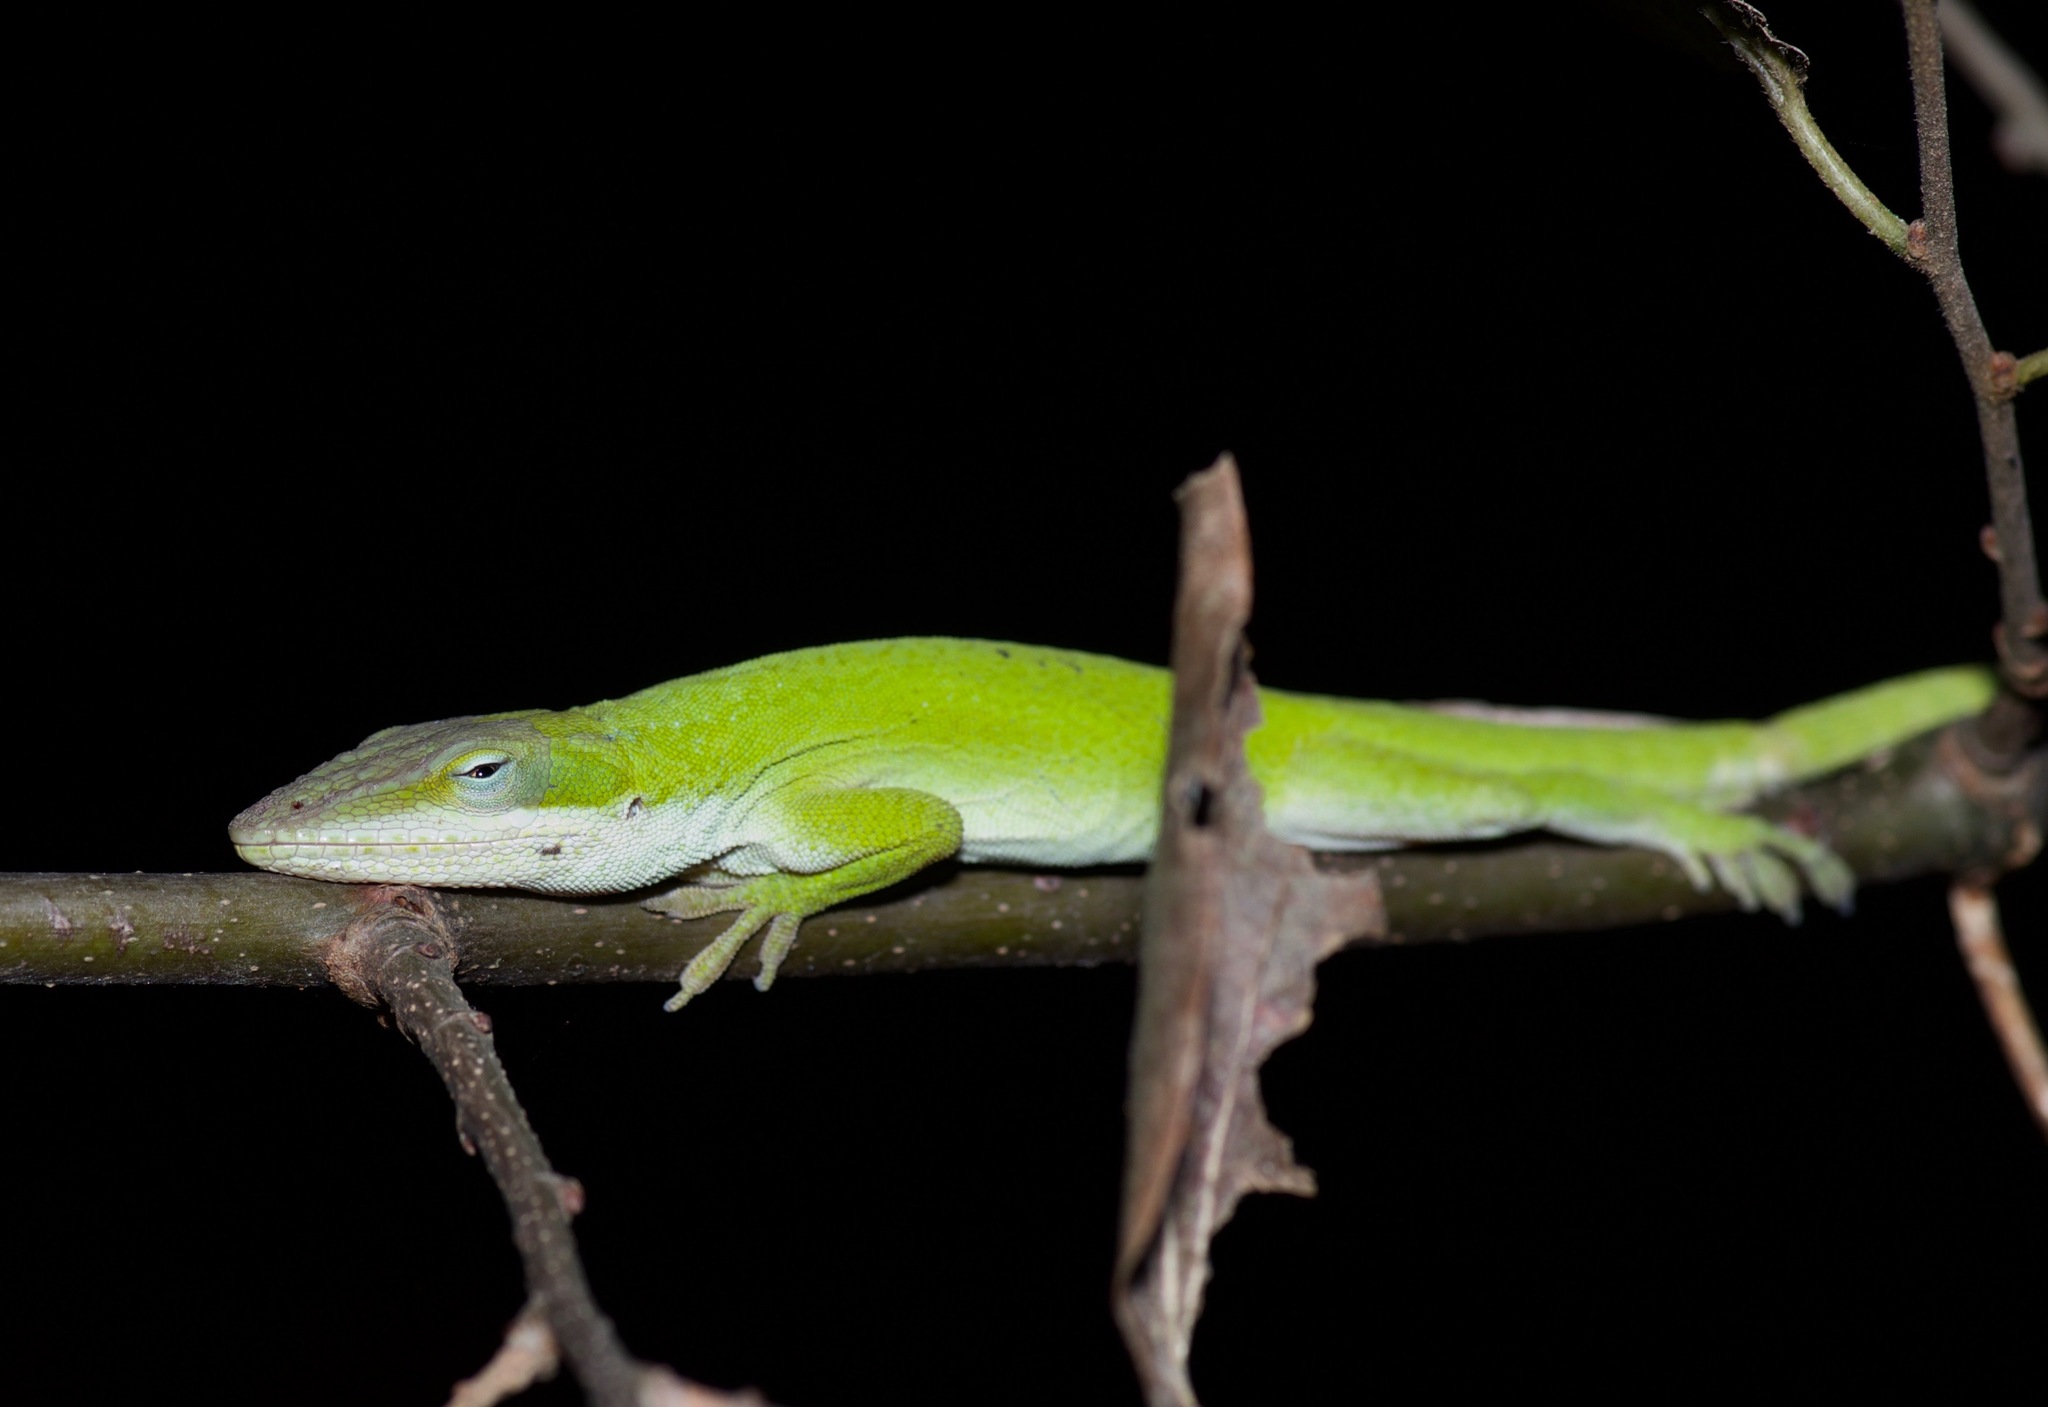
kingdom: Animalia
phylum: Chordata
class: Squamata
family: Dactyloidae
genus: Anolis
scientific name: Anolis carolinensis
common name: Green anole
